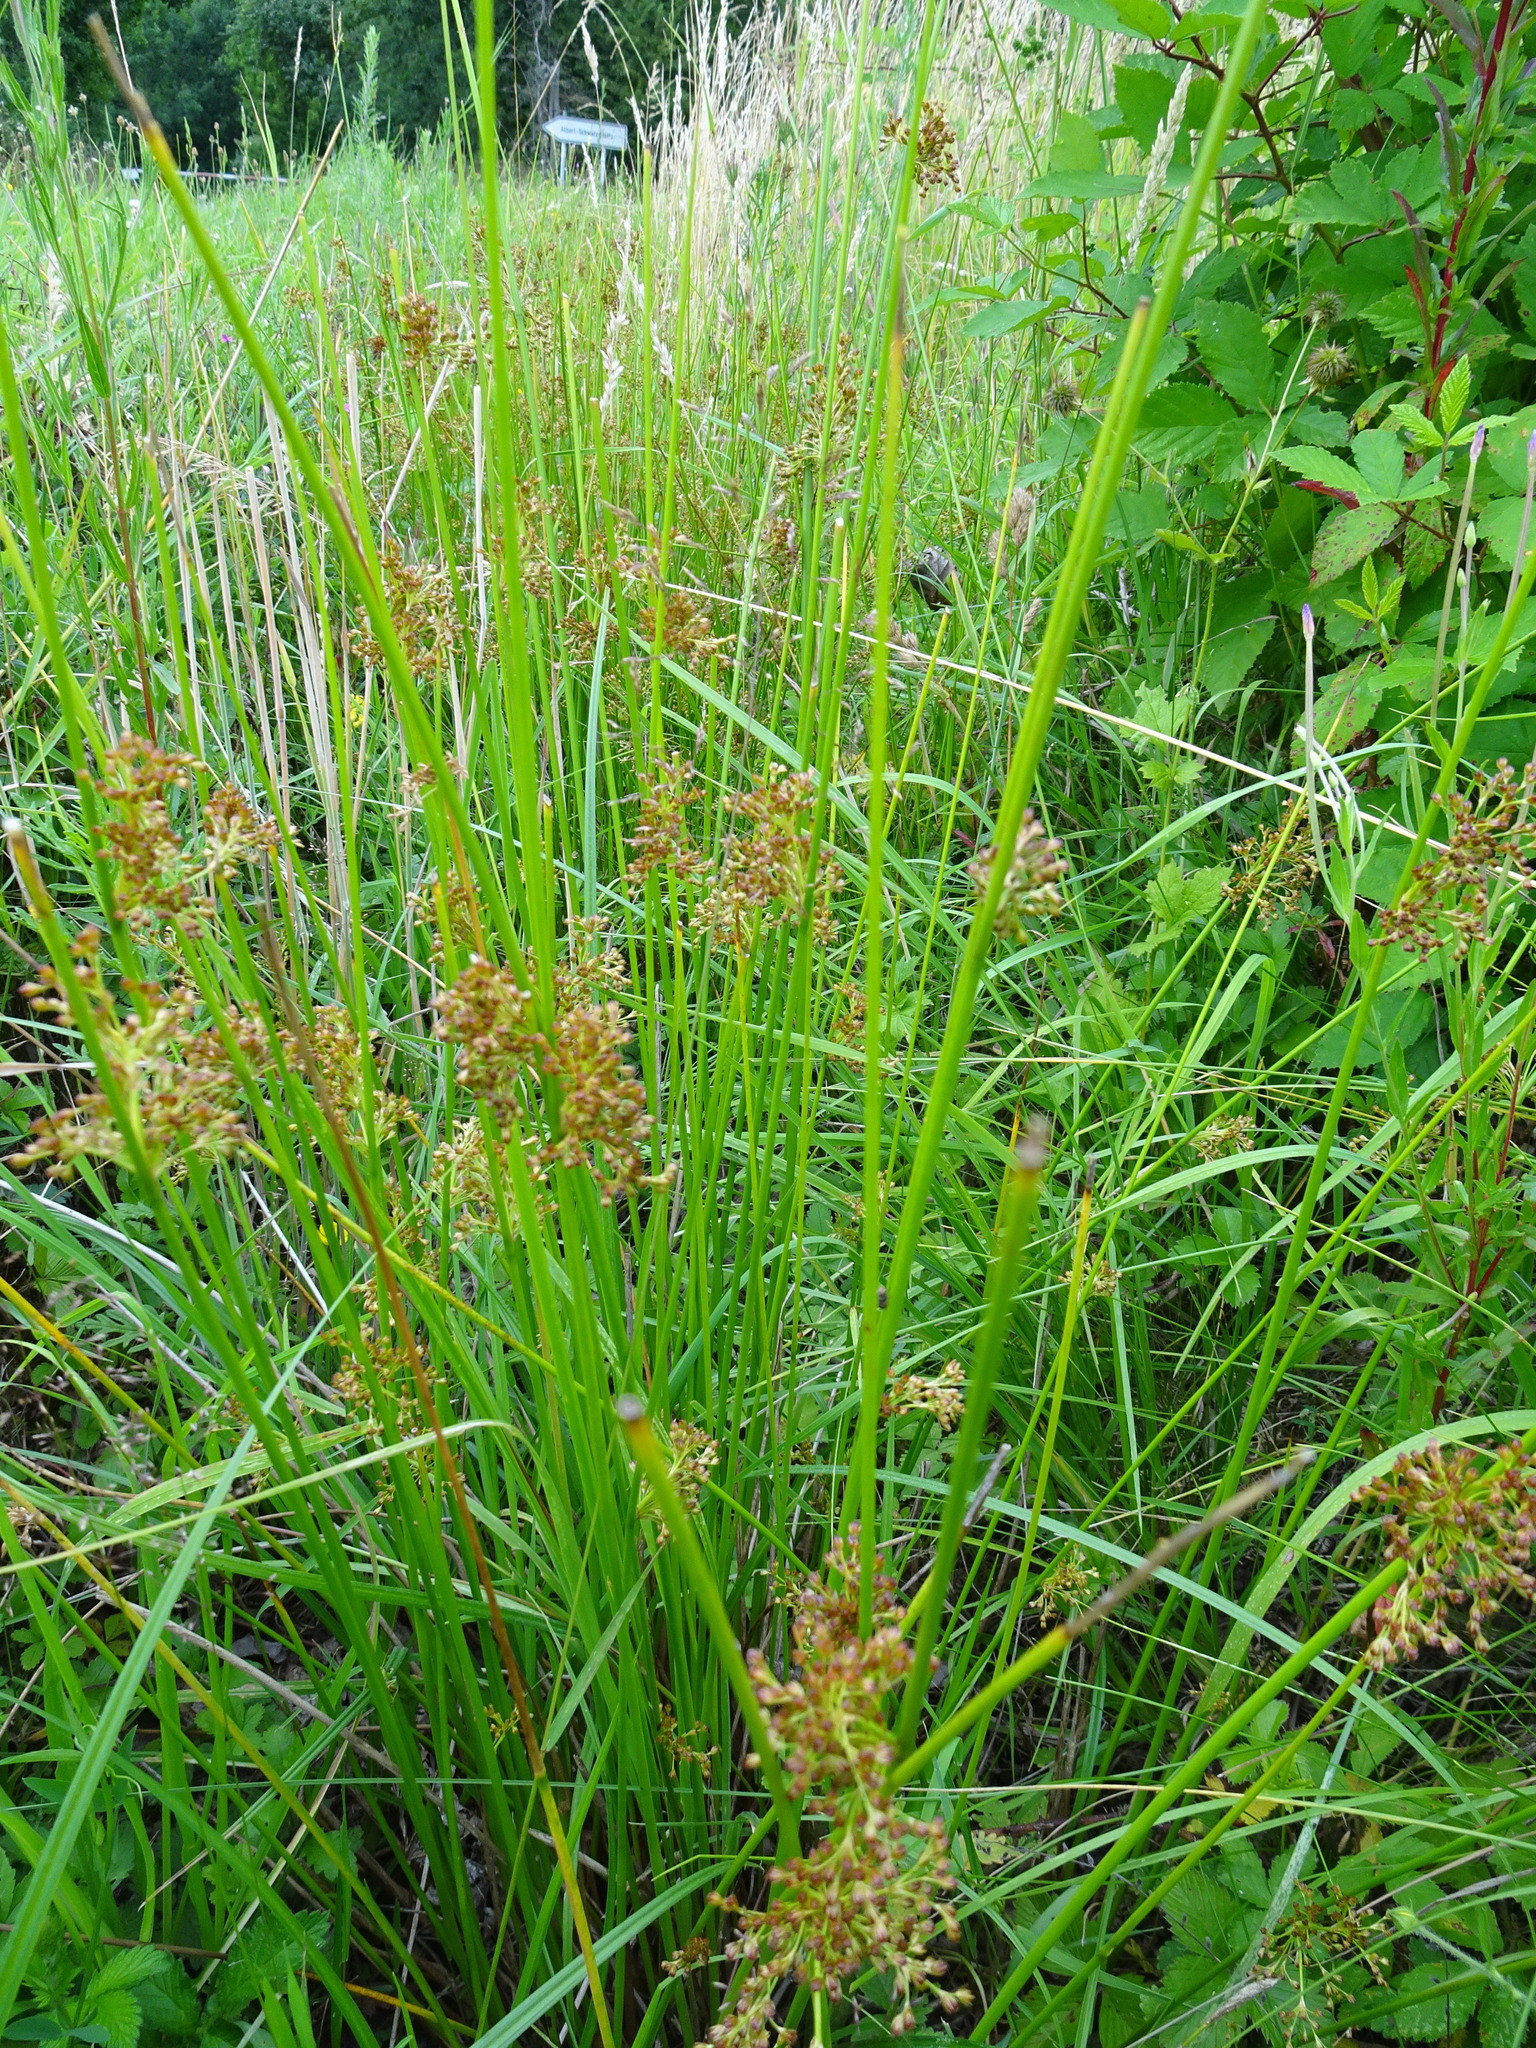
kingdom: Plantae
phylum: Tracheophyta
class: Liliopsida
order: Poales
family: Juncaceae
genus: Juncus
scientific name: Juncus effusus
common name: Soft rush
